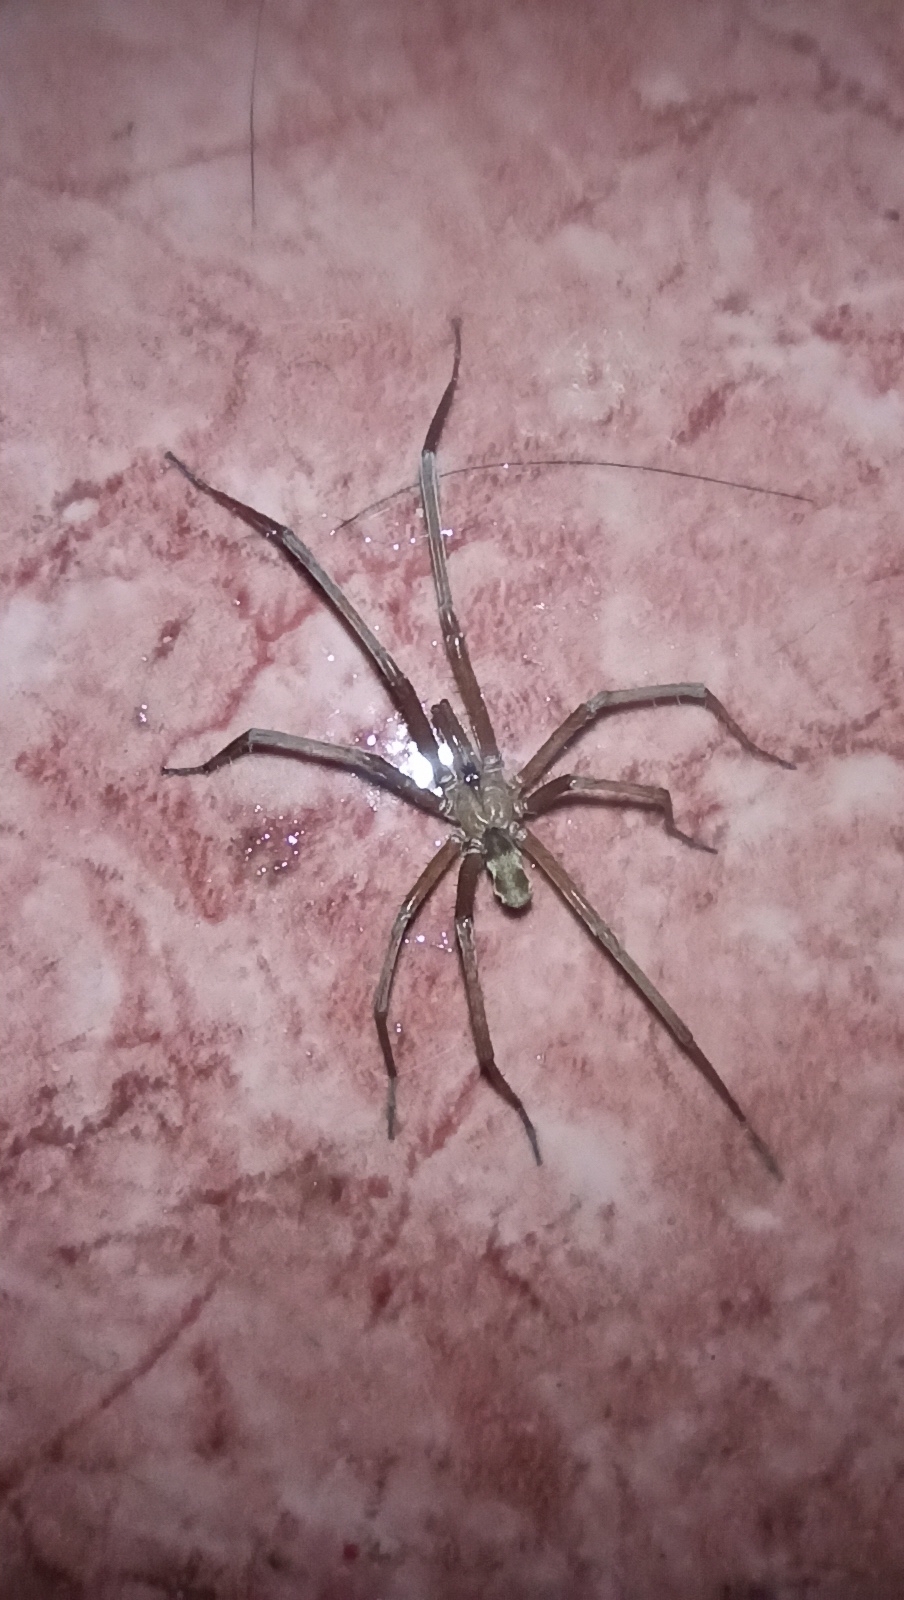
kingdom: Animalia
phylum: Arthropoda
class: Arachnida
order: Araneae
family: Filistatidae
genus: Kukulcania
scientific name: Kukulcania hibernalis
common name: Crevice weaver
